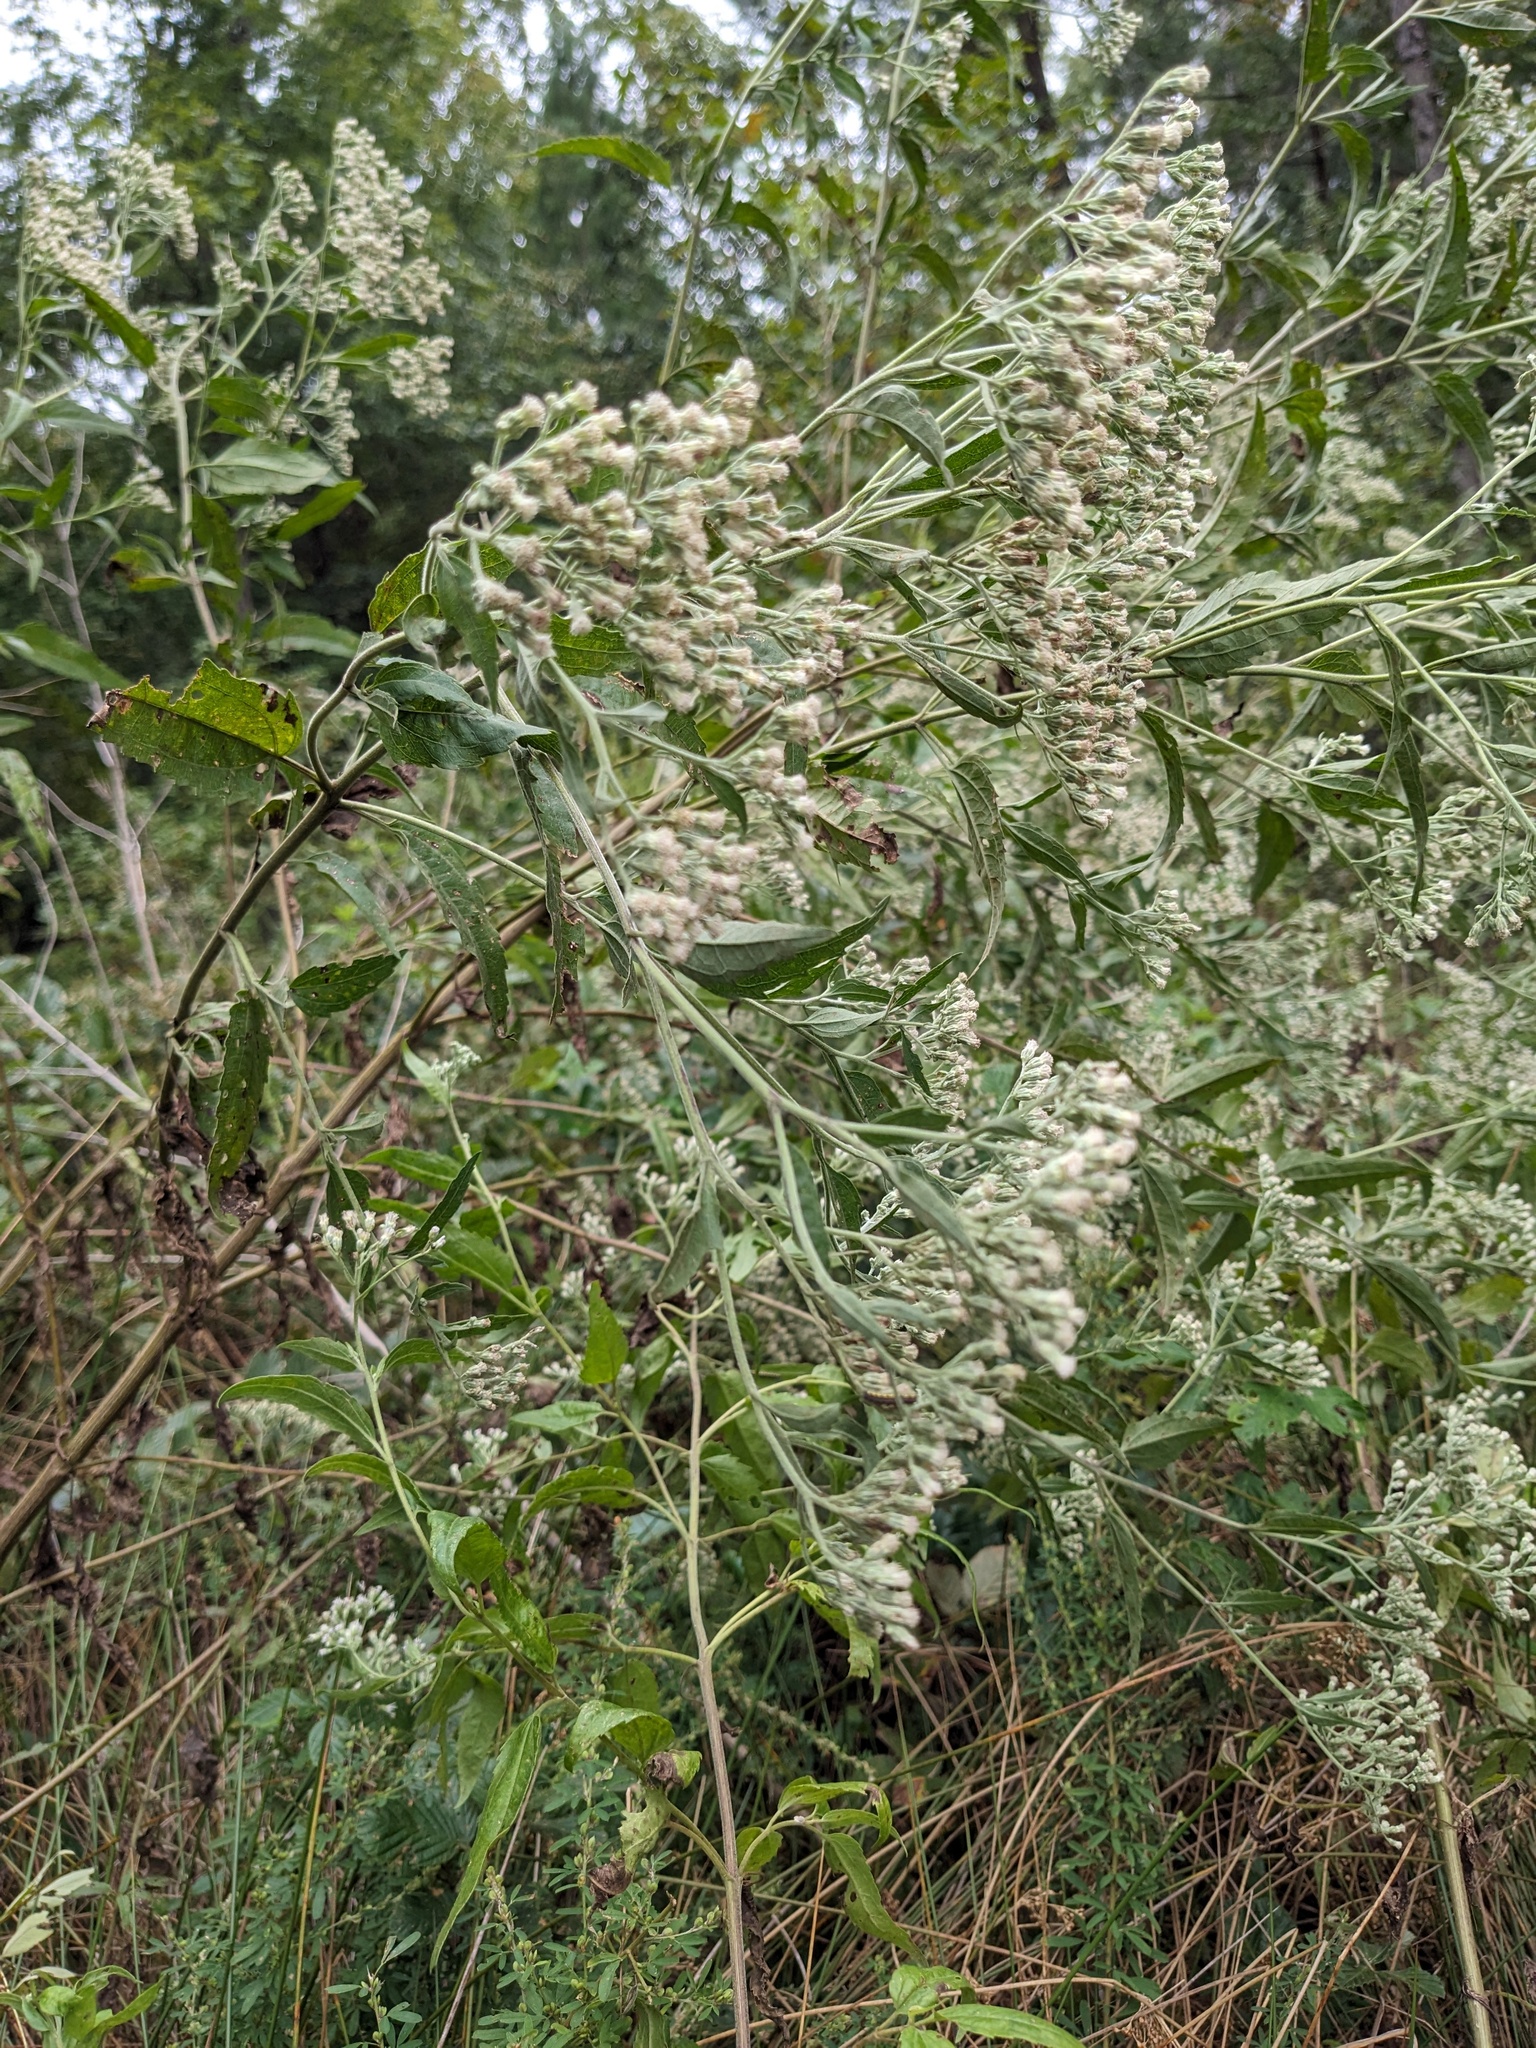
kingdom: Plantae
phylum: Tracheophyta
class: Magnoliopsida
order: Asterales
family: Asteraceae
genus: Eupatorium
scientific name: Eupatorium serotinum
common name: Late boneset
